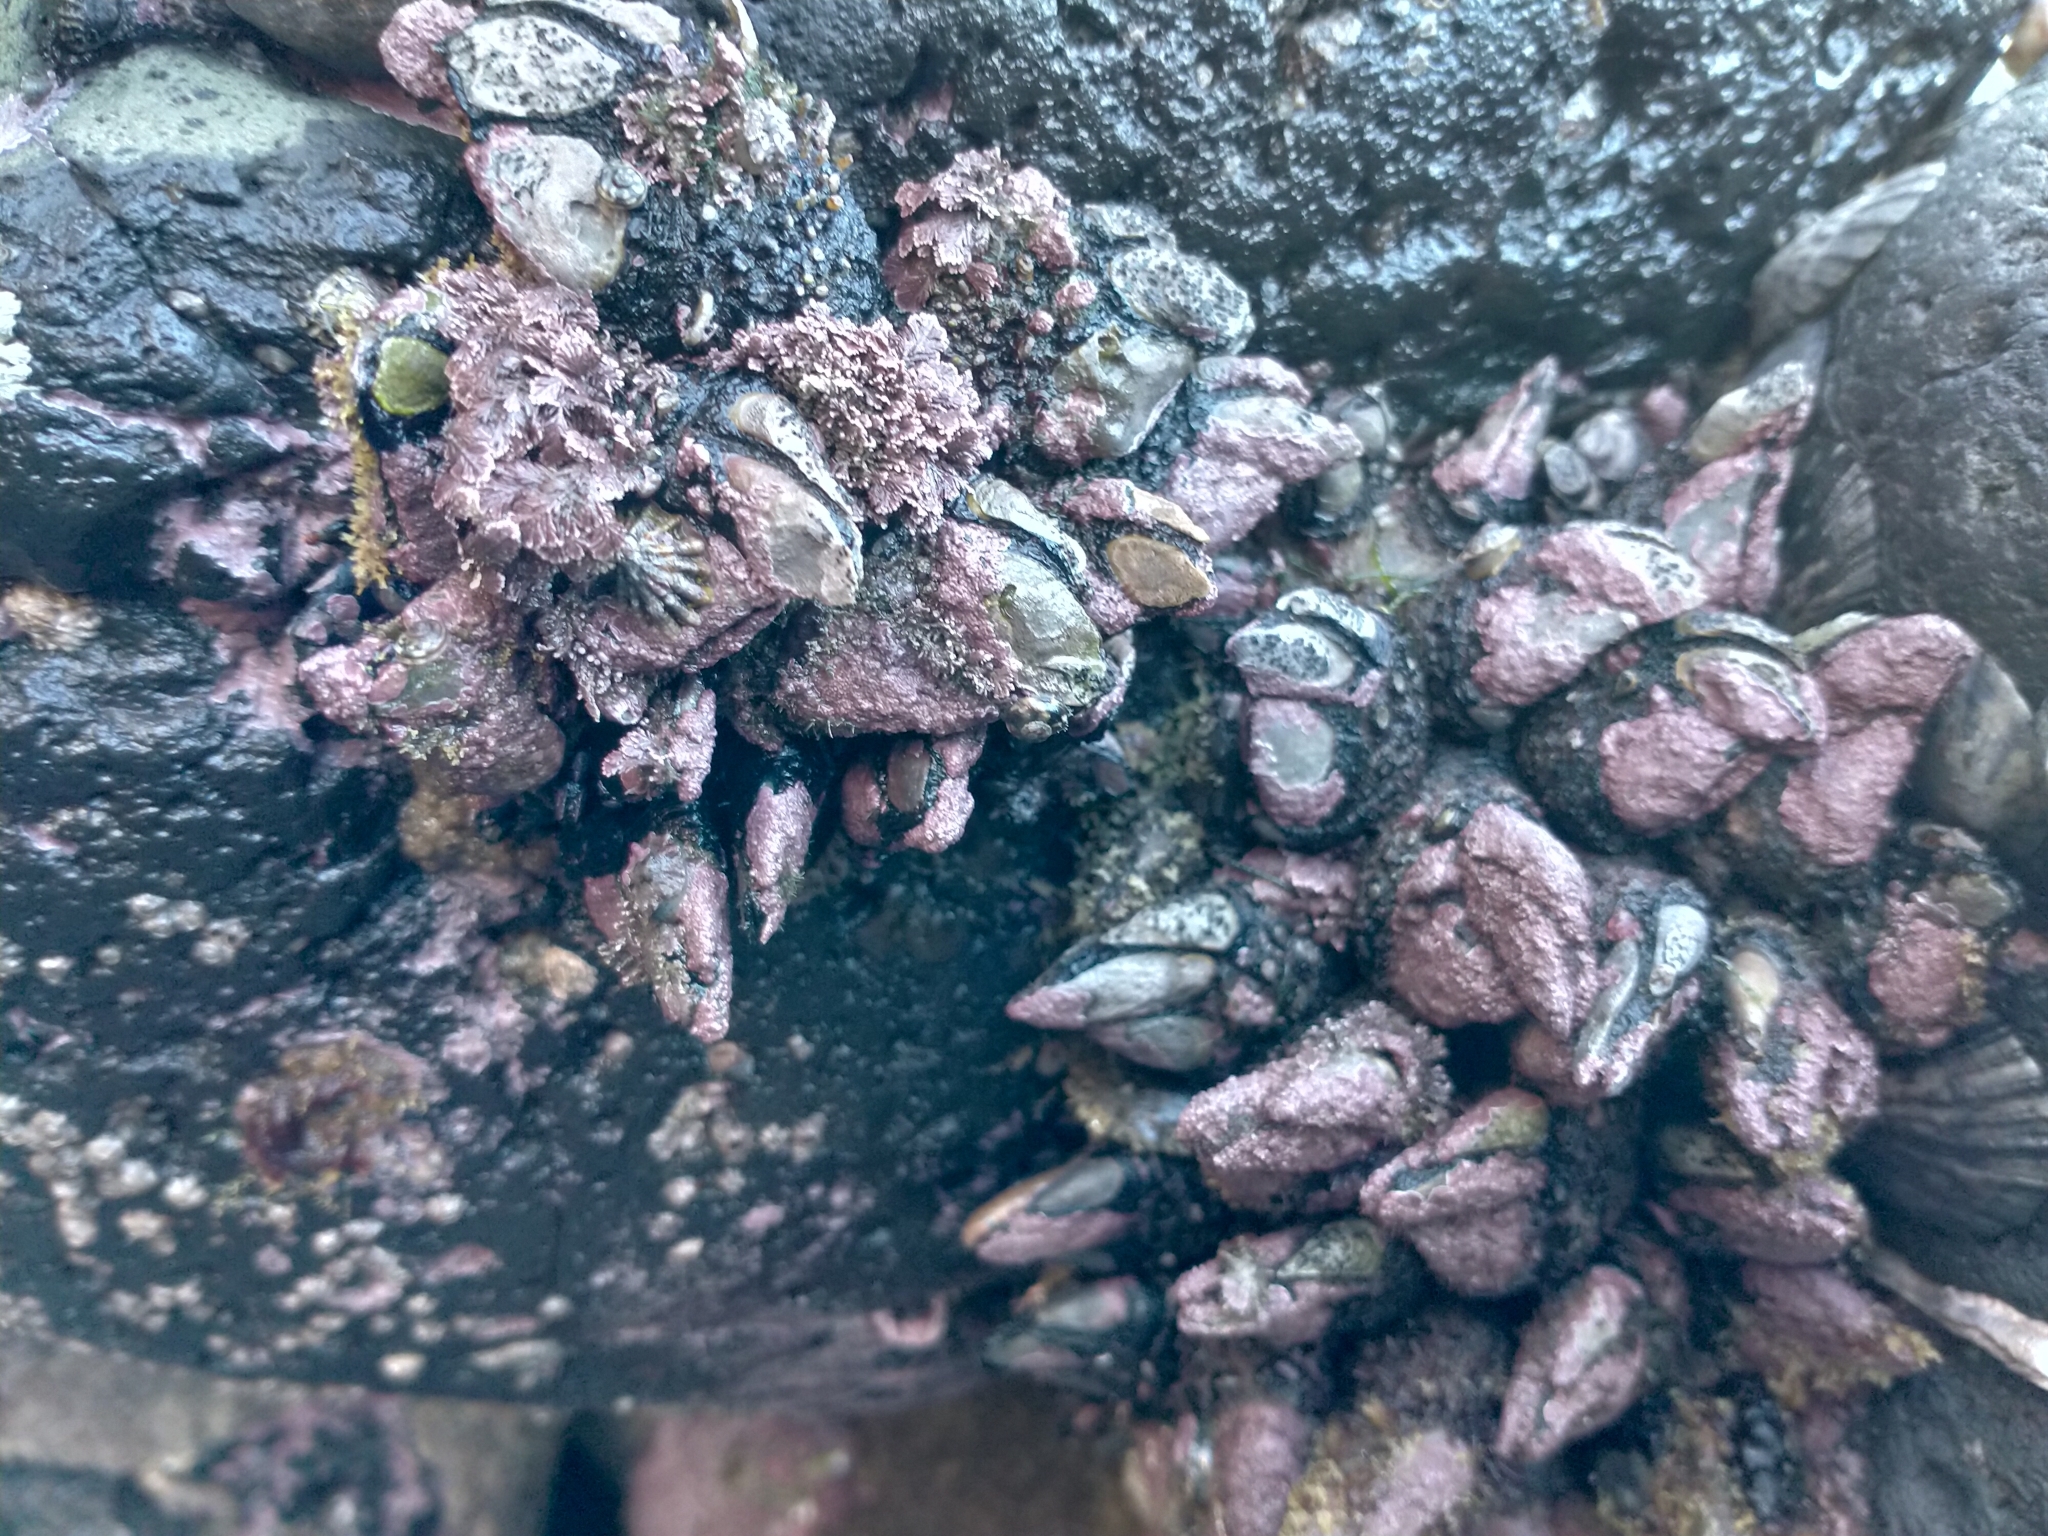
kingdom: Animalia
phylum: Arthropoda
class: Maxillopoda
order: Pedunculata
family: Calanticidae
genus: Calantica
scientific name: Calantica spinosa
